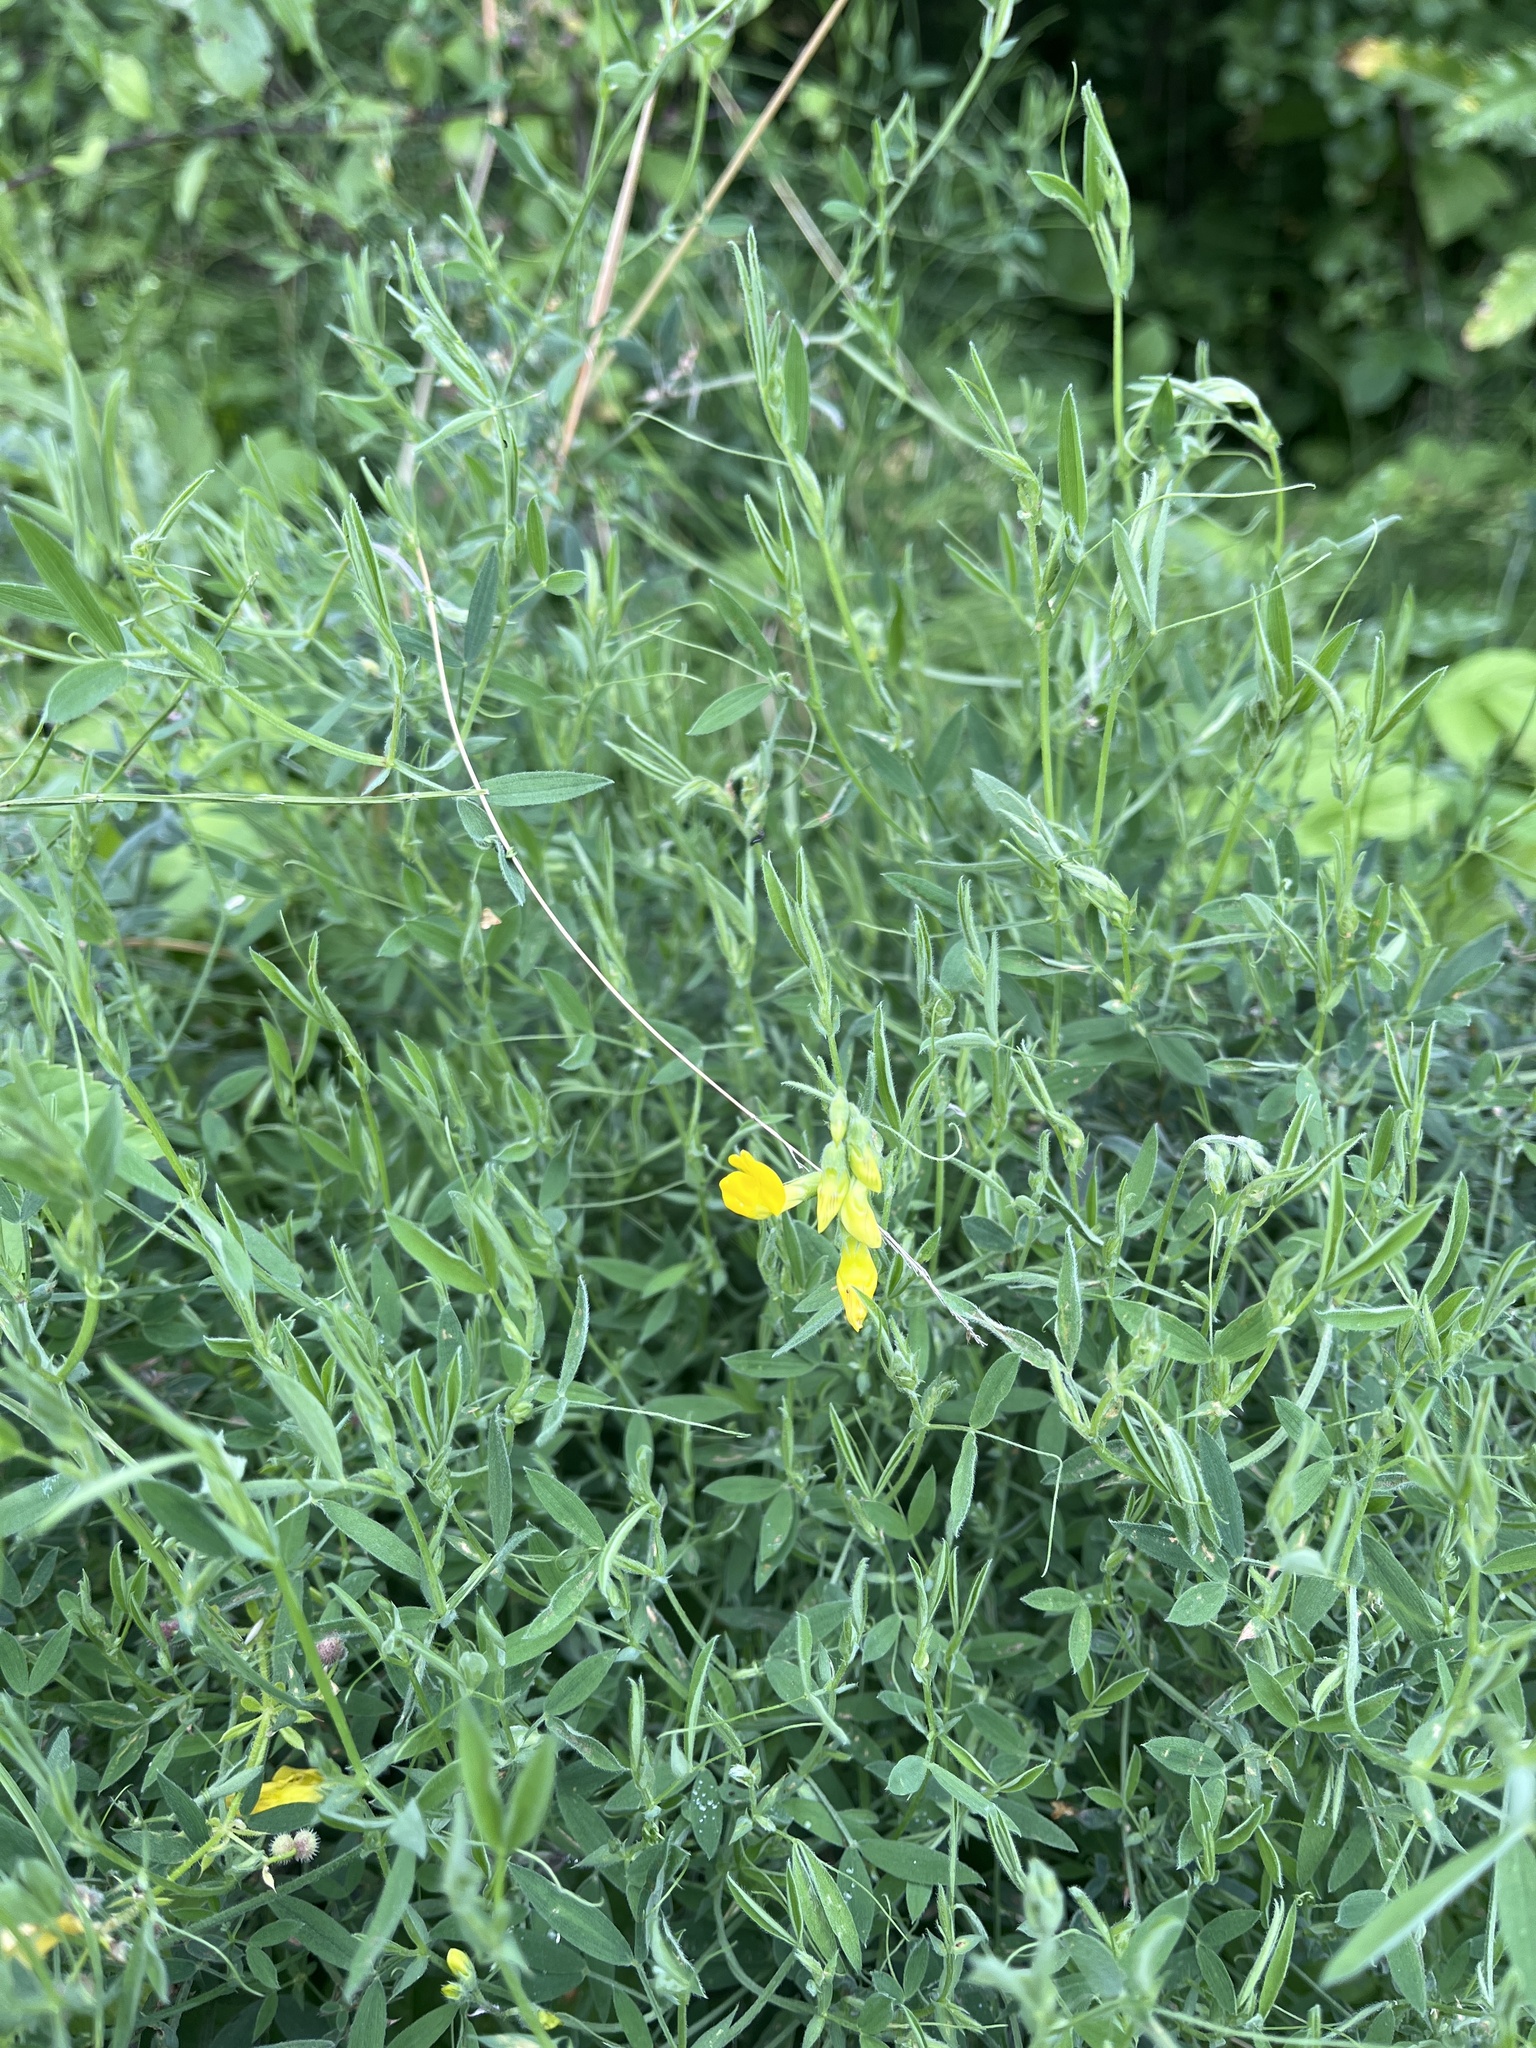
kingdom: Plantae
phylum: Tracheophyta
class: Magnoliopsida
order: Fabales
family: Fabaceae
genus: Lathyrus
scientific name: Lathyrus pratensis
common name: Meadow vetchling
